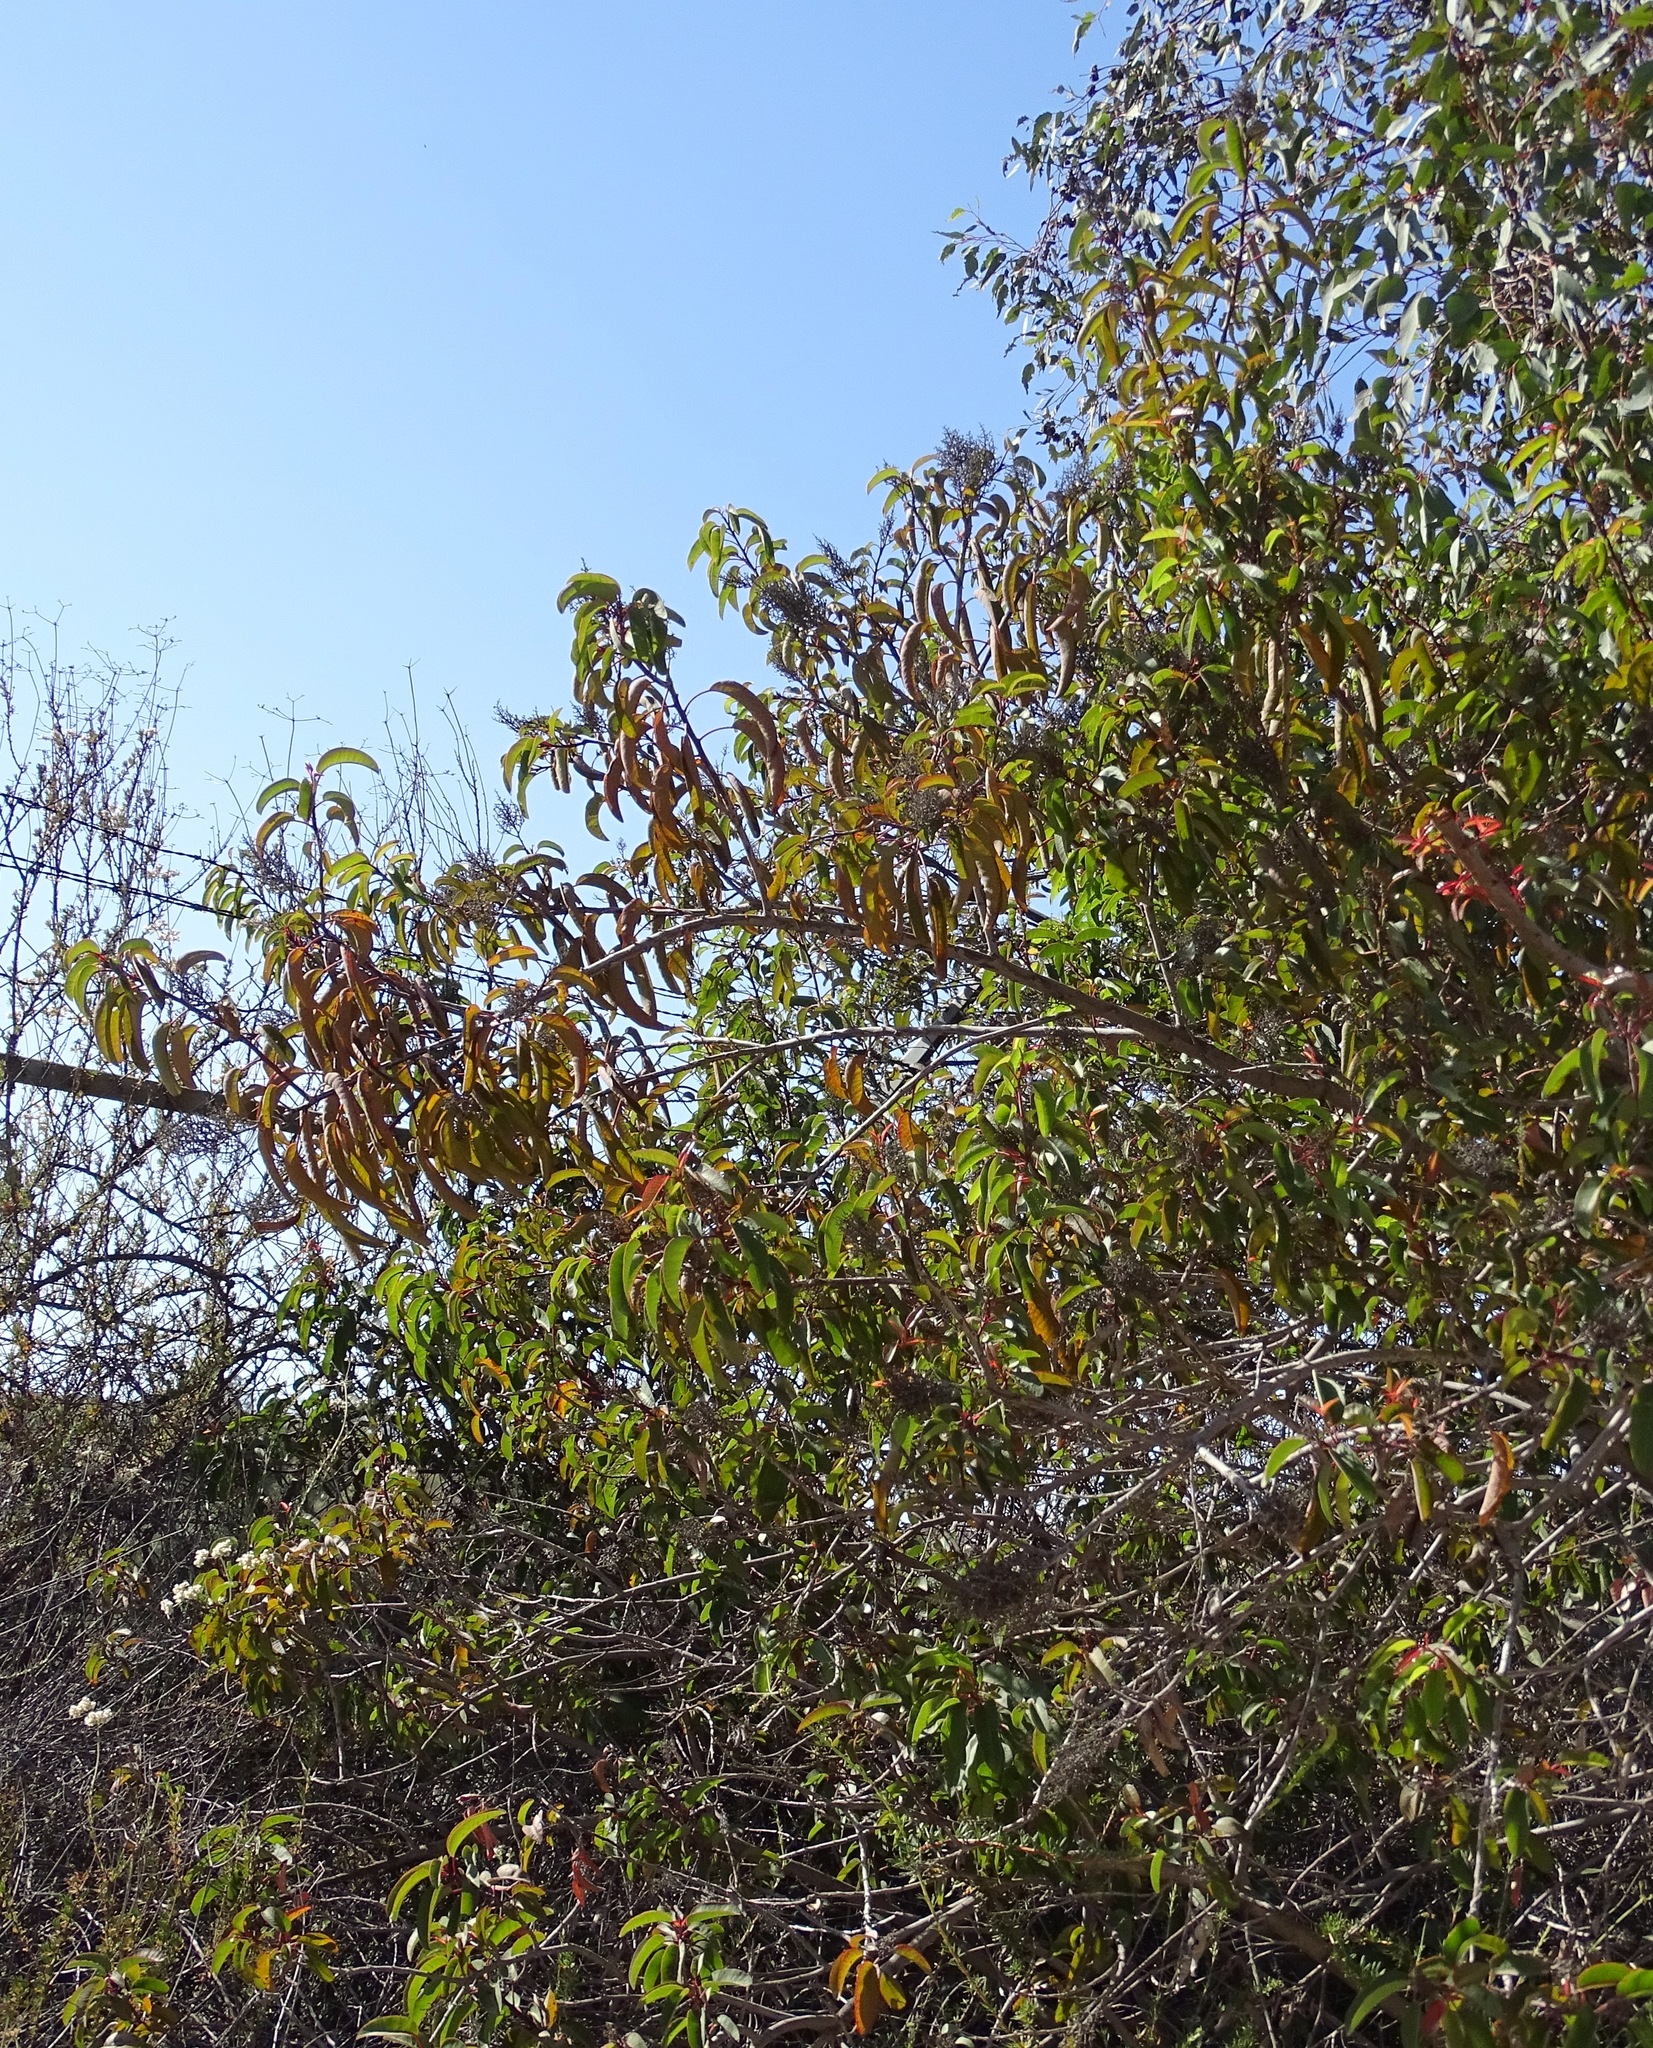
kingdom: Plantae
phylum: Tracheophyta
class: Magnoliopsida
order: Sapindales
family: Anacardiaceae
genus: Malosma
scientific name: Malosma laurina
